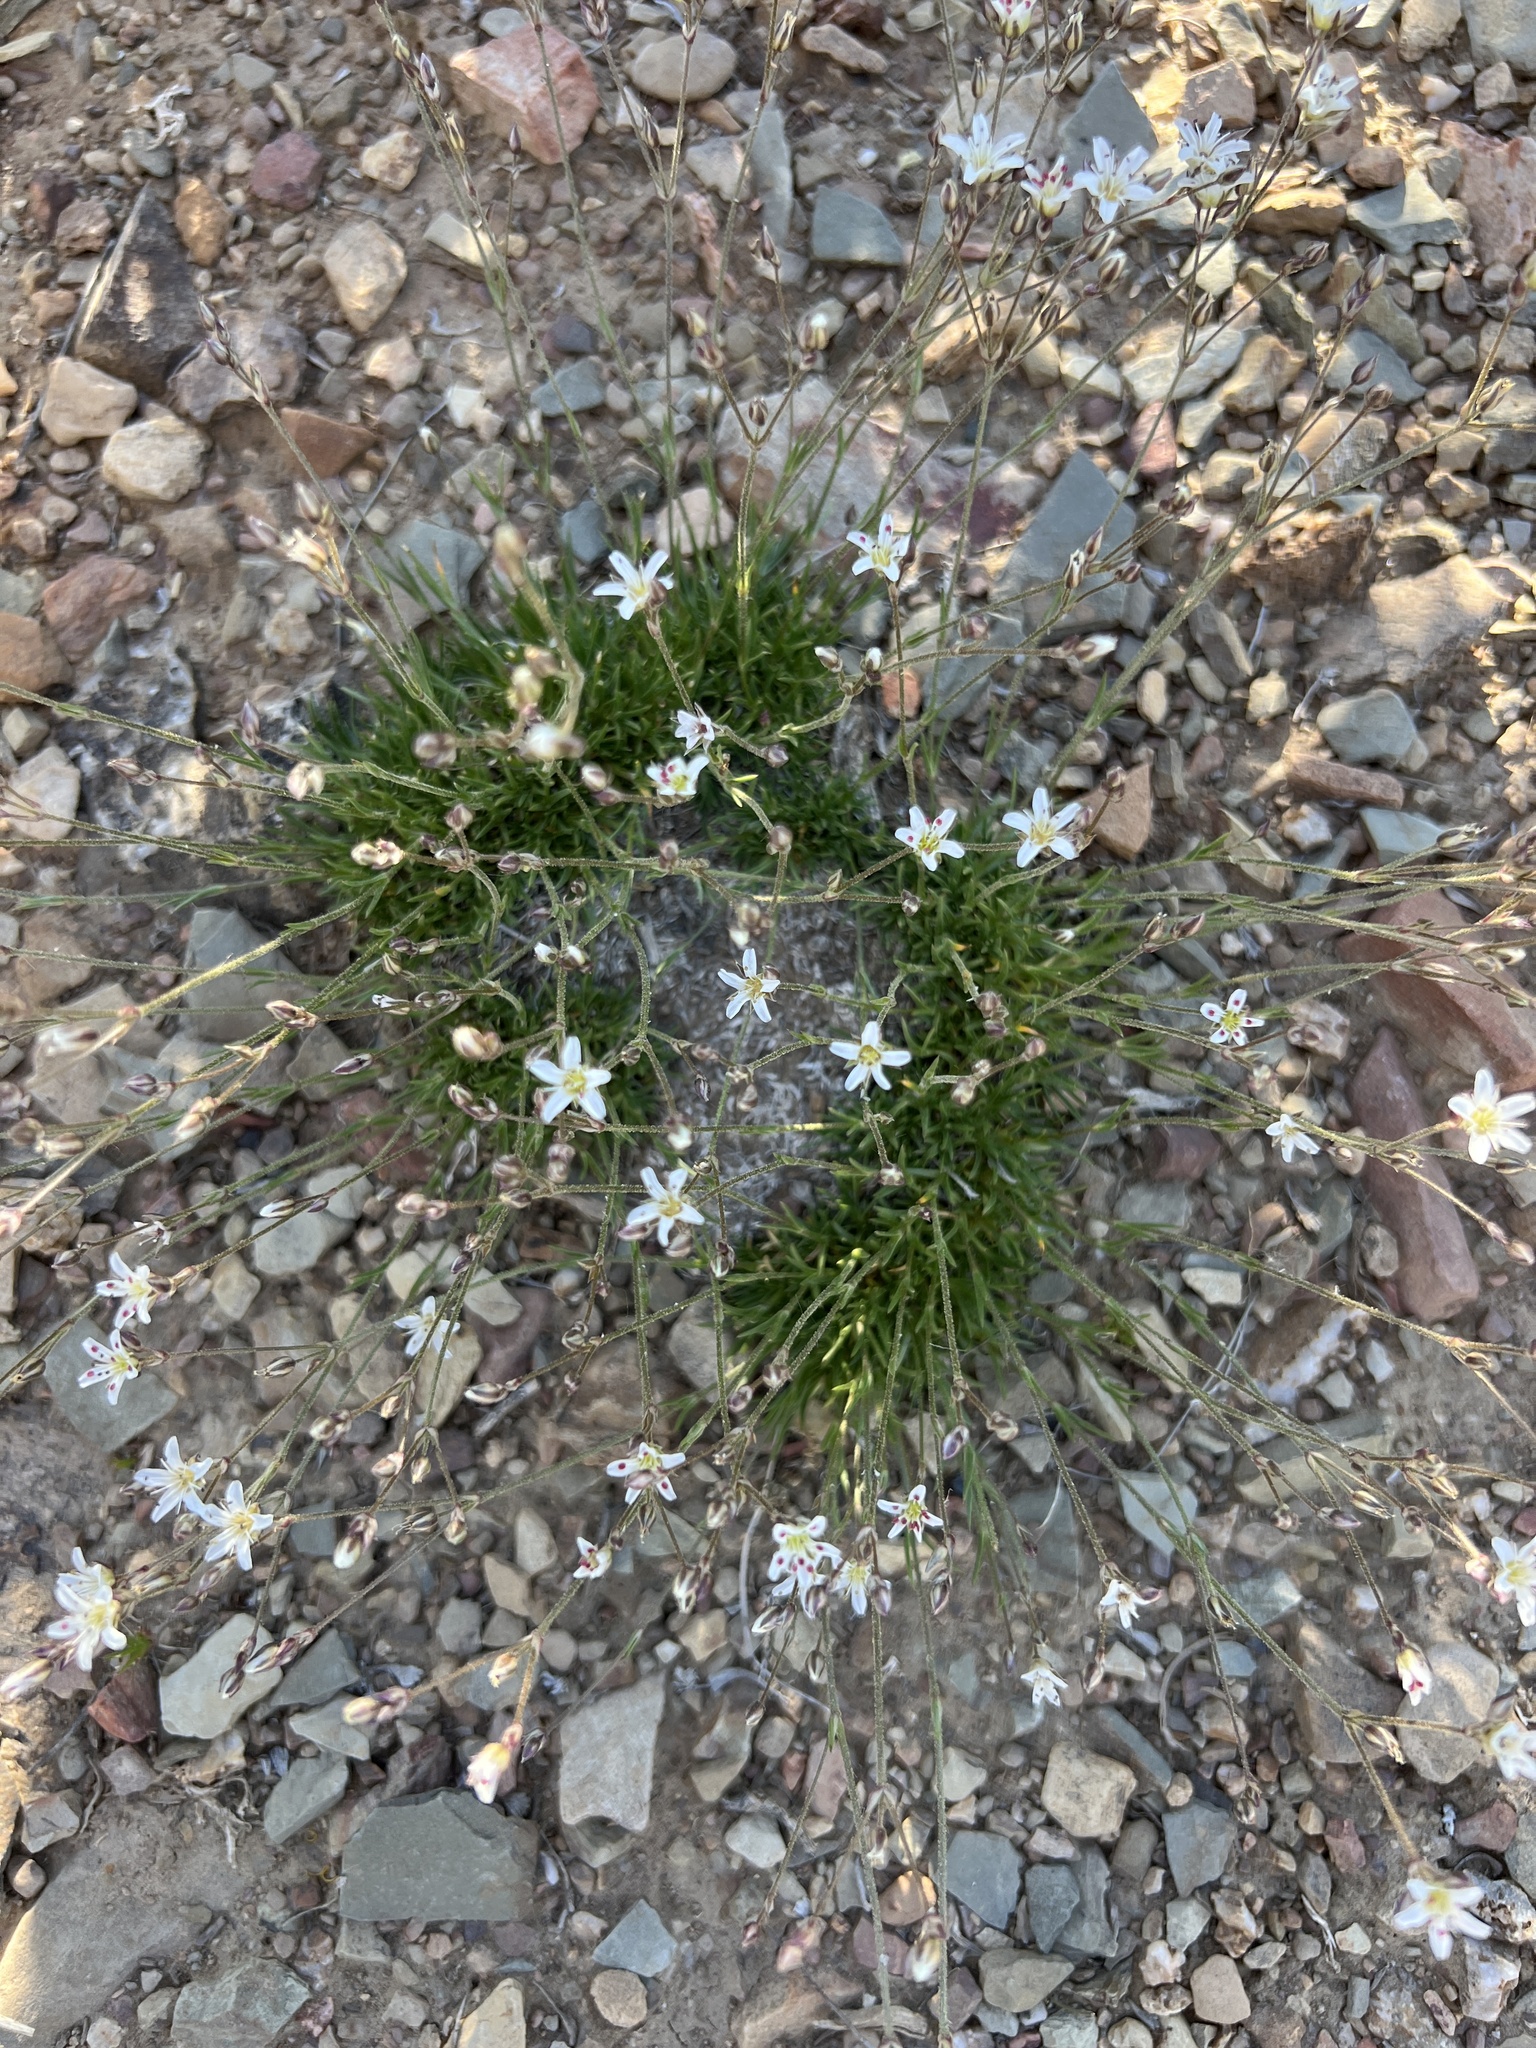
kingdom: Plantae
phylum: Tracheophyta
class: Magnoliopsida
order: Caryophyllales
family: Caryophyllaceae
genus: Eremogone
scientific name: Eremogone kingii
